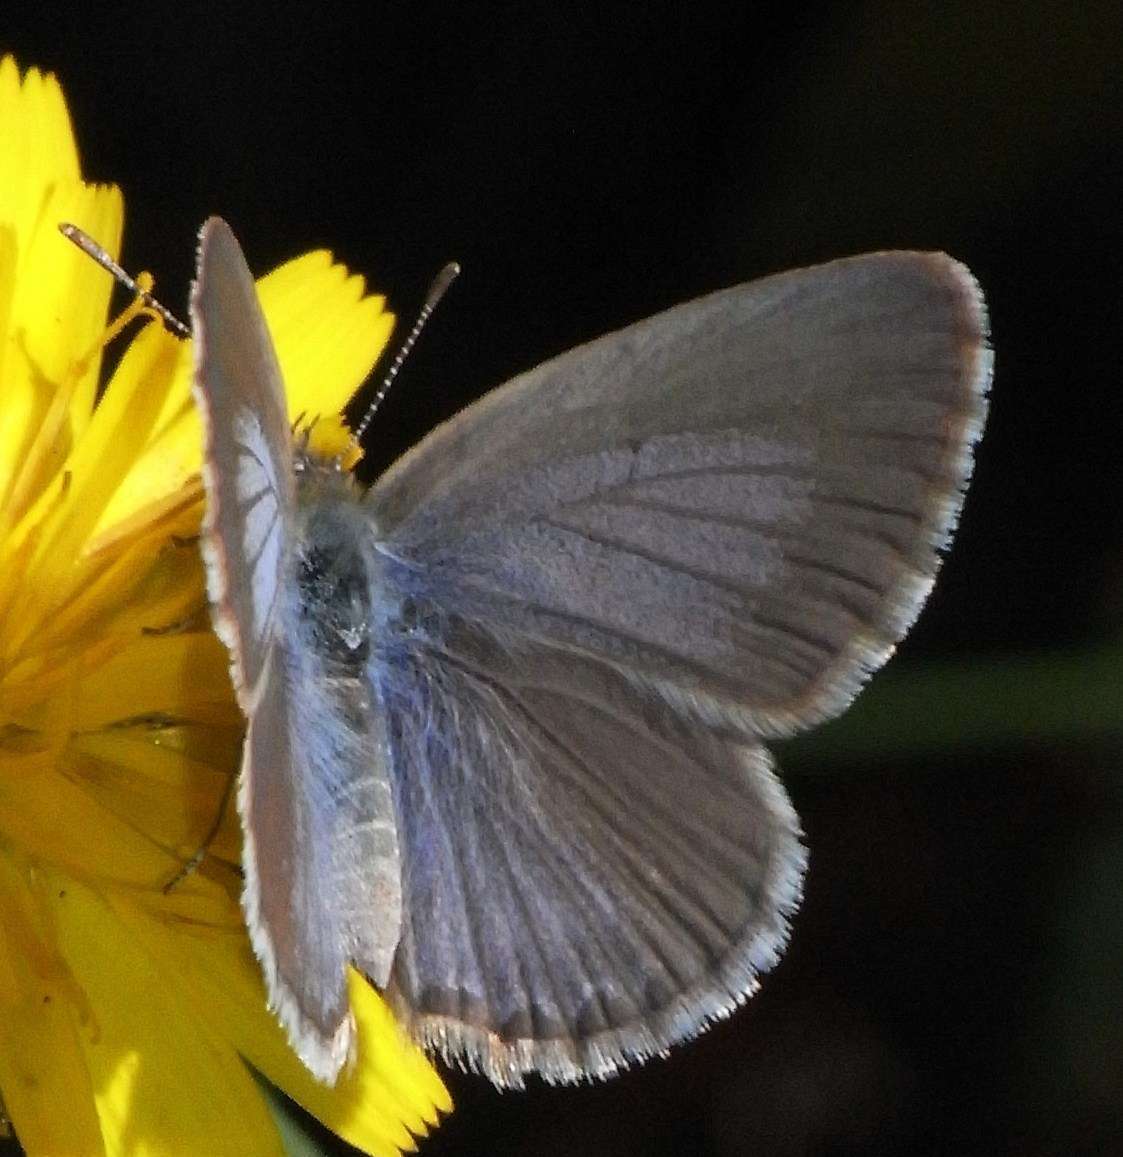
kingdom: Animalia
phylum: Arthropoda
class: Insecta
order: Lepidoptera
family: Lycaenidae
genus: Zizina
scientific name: Zizina labradus
